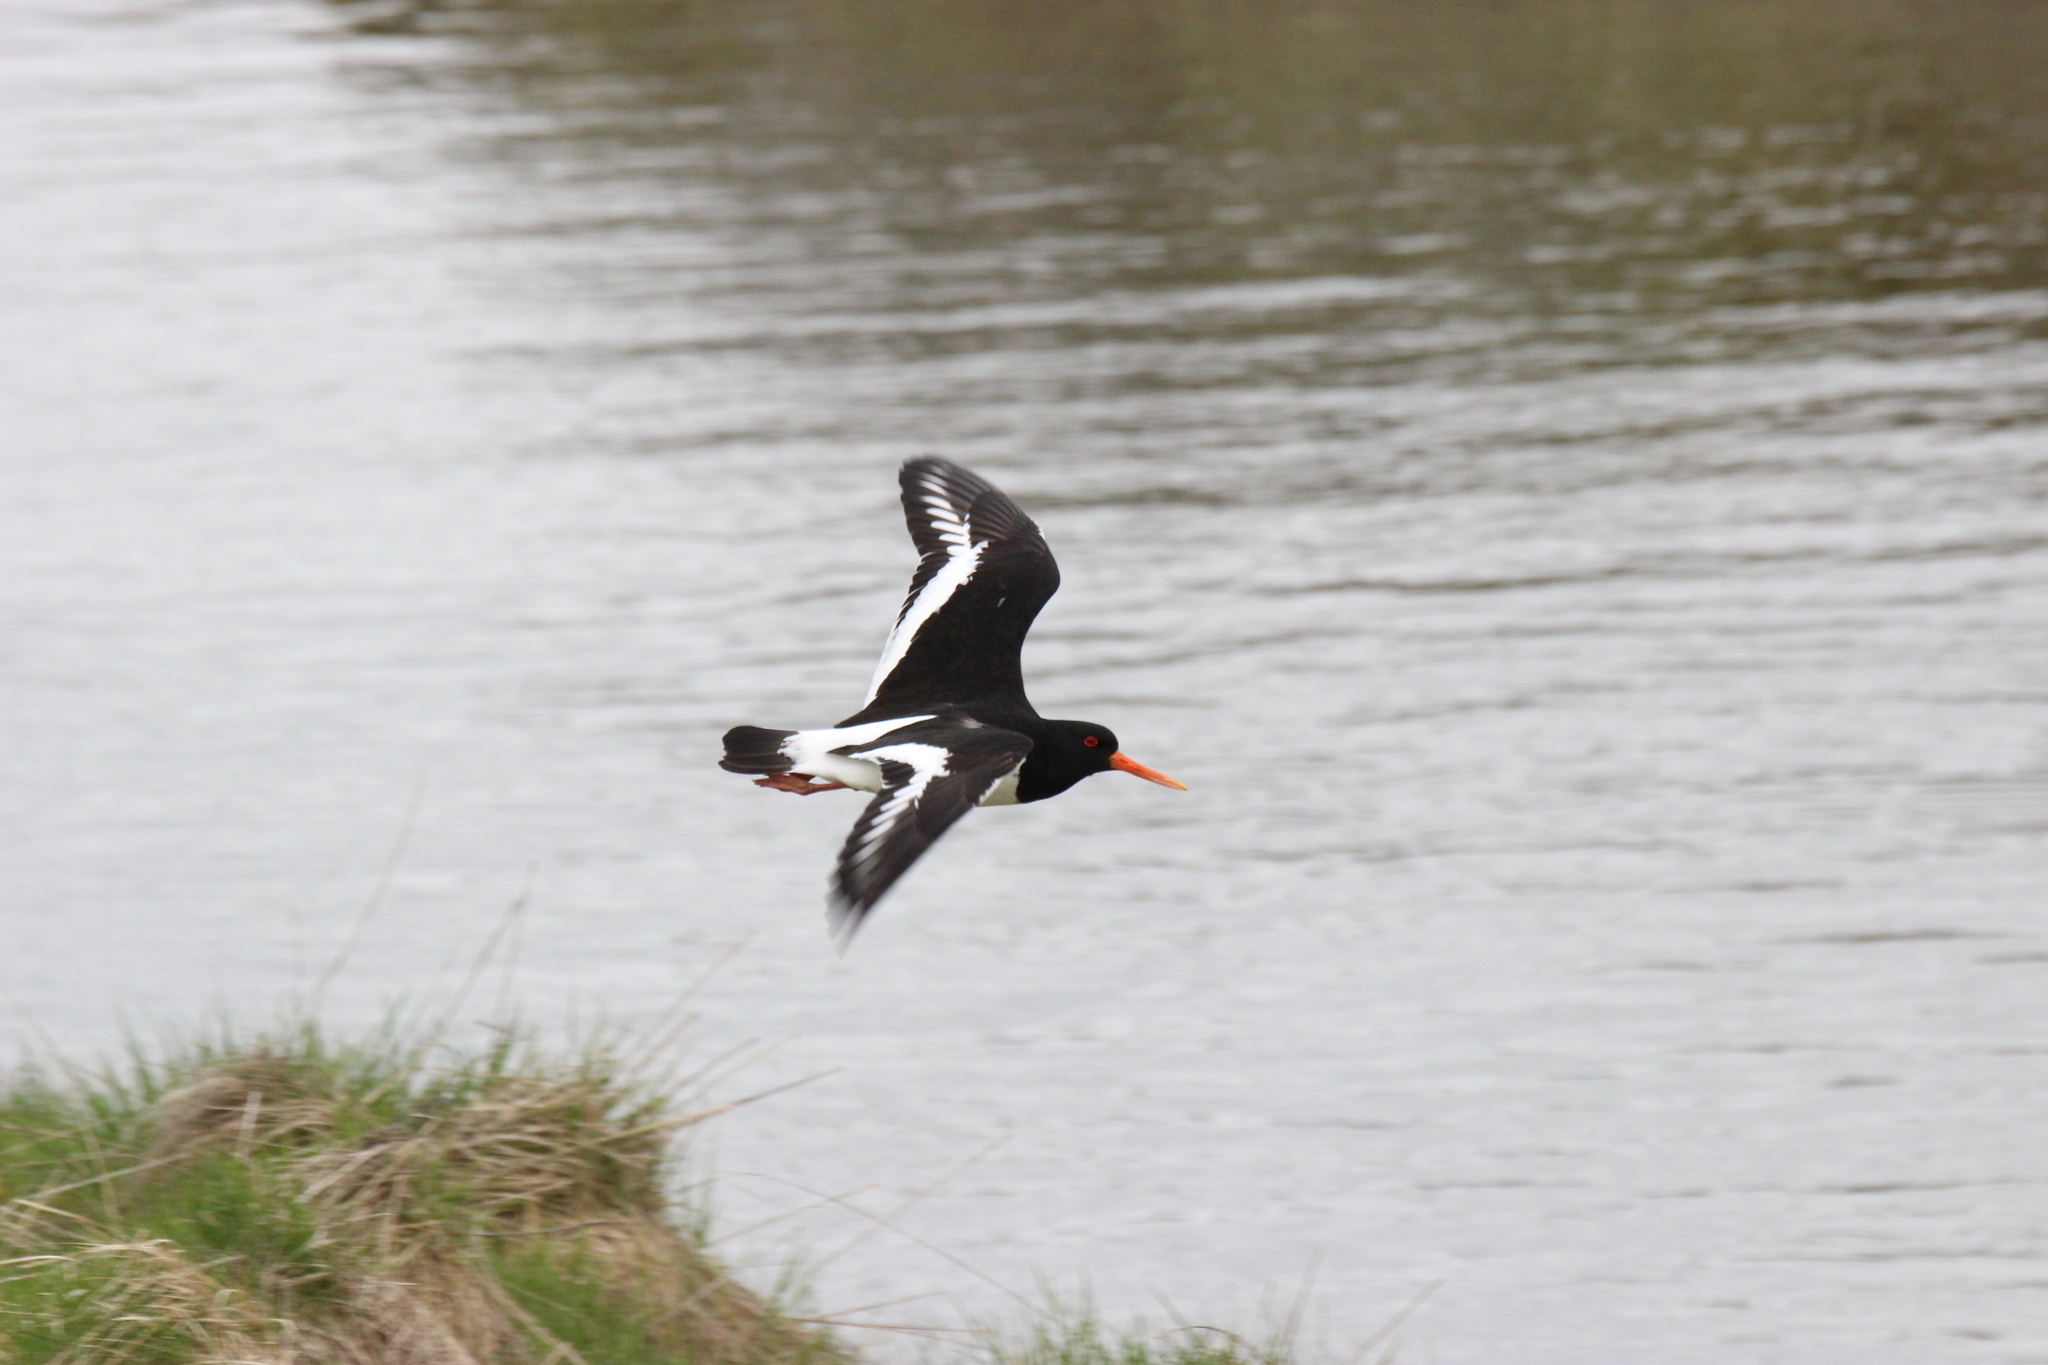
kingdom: Animalia
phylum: Chordata
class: Aves
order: Charadriiformes
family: Haematopodidae
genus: Haematopus
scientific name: Haematopus ostralegus
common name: Eurasian oystercatcher
